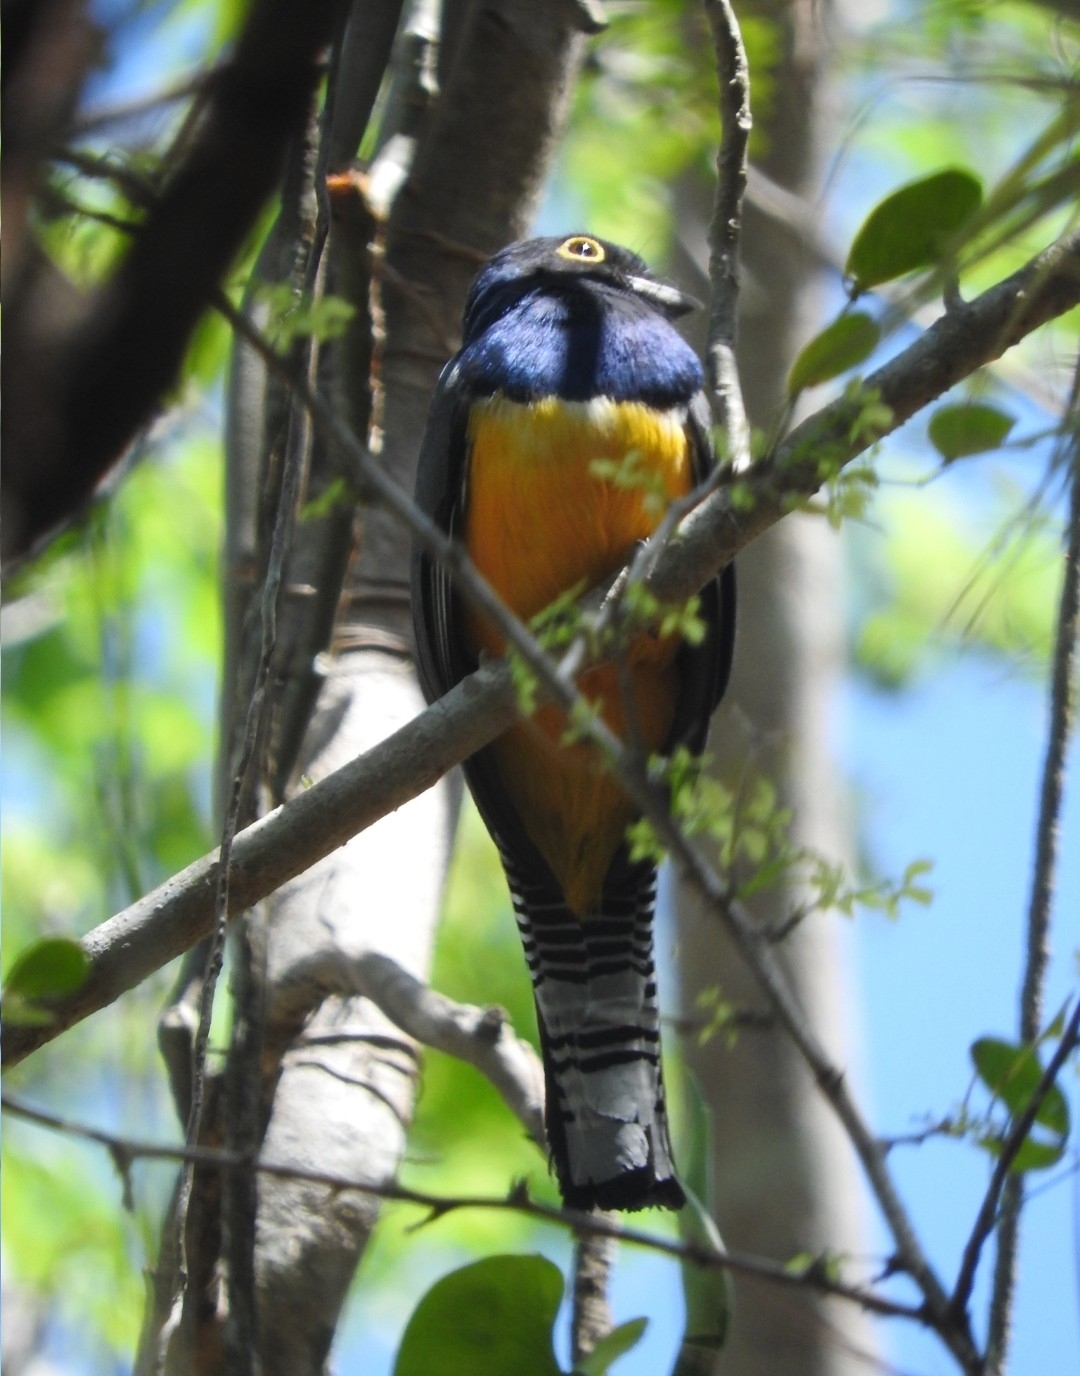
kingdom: Animalia
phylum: Chordata
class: Aves
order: Trogoniformes
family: Trogonidae
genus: Trogon
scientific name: Trogon caligatus
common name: Gartered trogon
